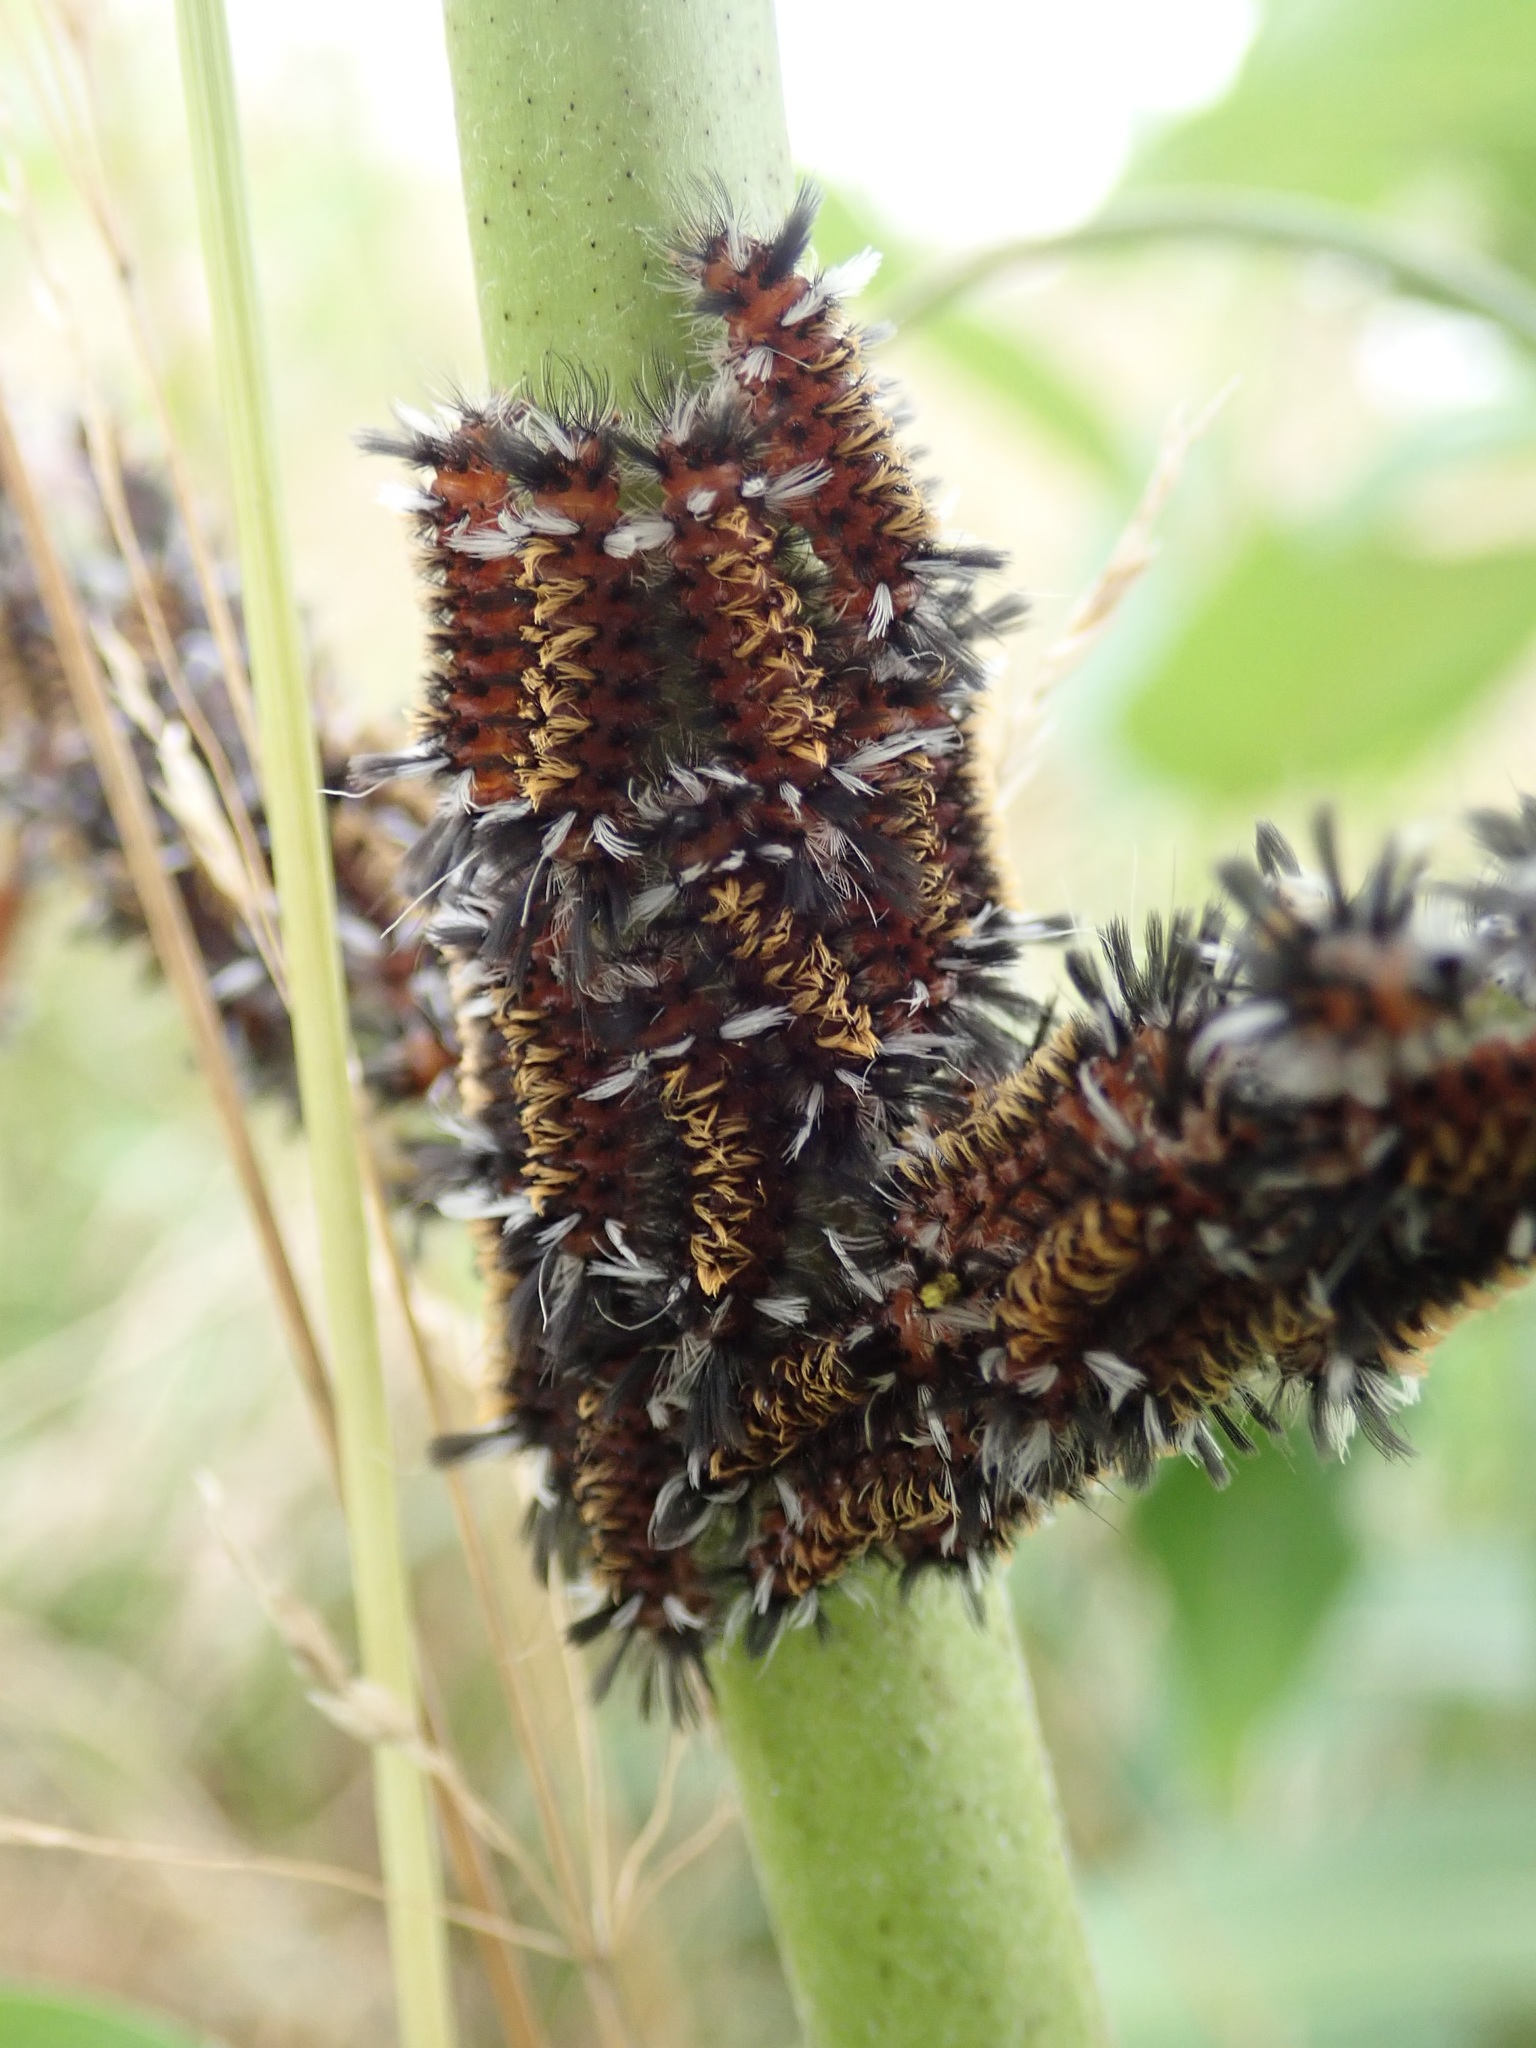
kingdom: Animalia
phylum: Arthropoda
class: Insecta
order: Lepidoptera
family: Erebidae
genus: Euchaetes
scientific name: Euchaetes egle
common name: Milkweed tussock moth
